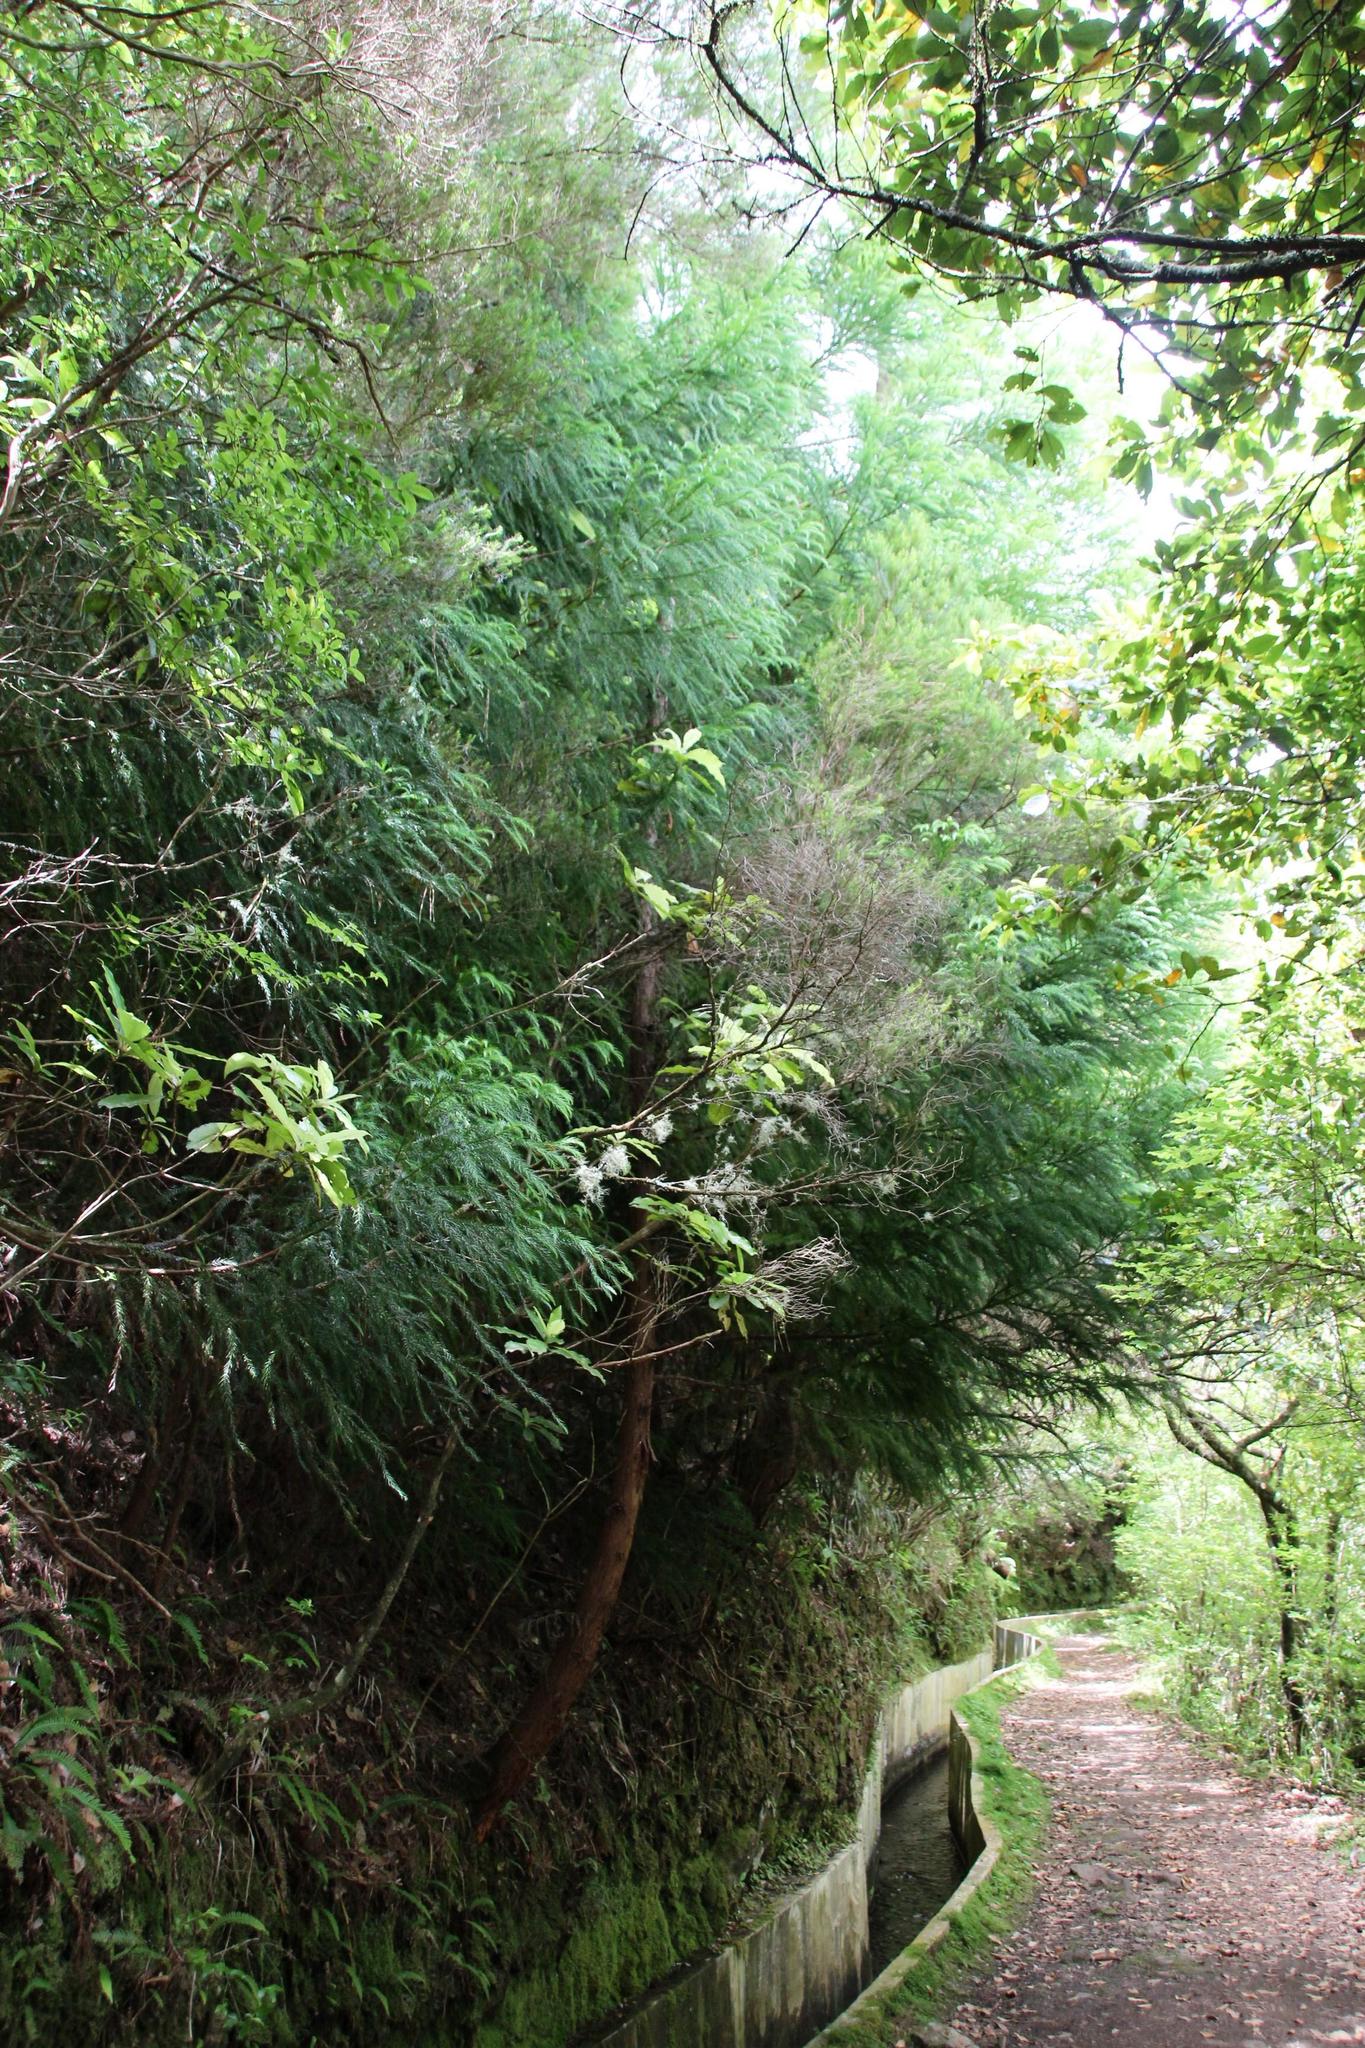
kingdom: Plantae
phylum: Tracheophyta
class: Pinopsida
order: Pinales
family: Cupressaceae
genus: Cryptomeria
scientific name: Cryptomeria japonica
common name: Japanese cedar
